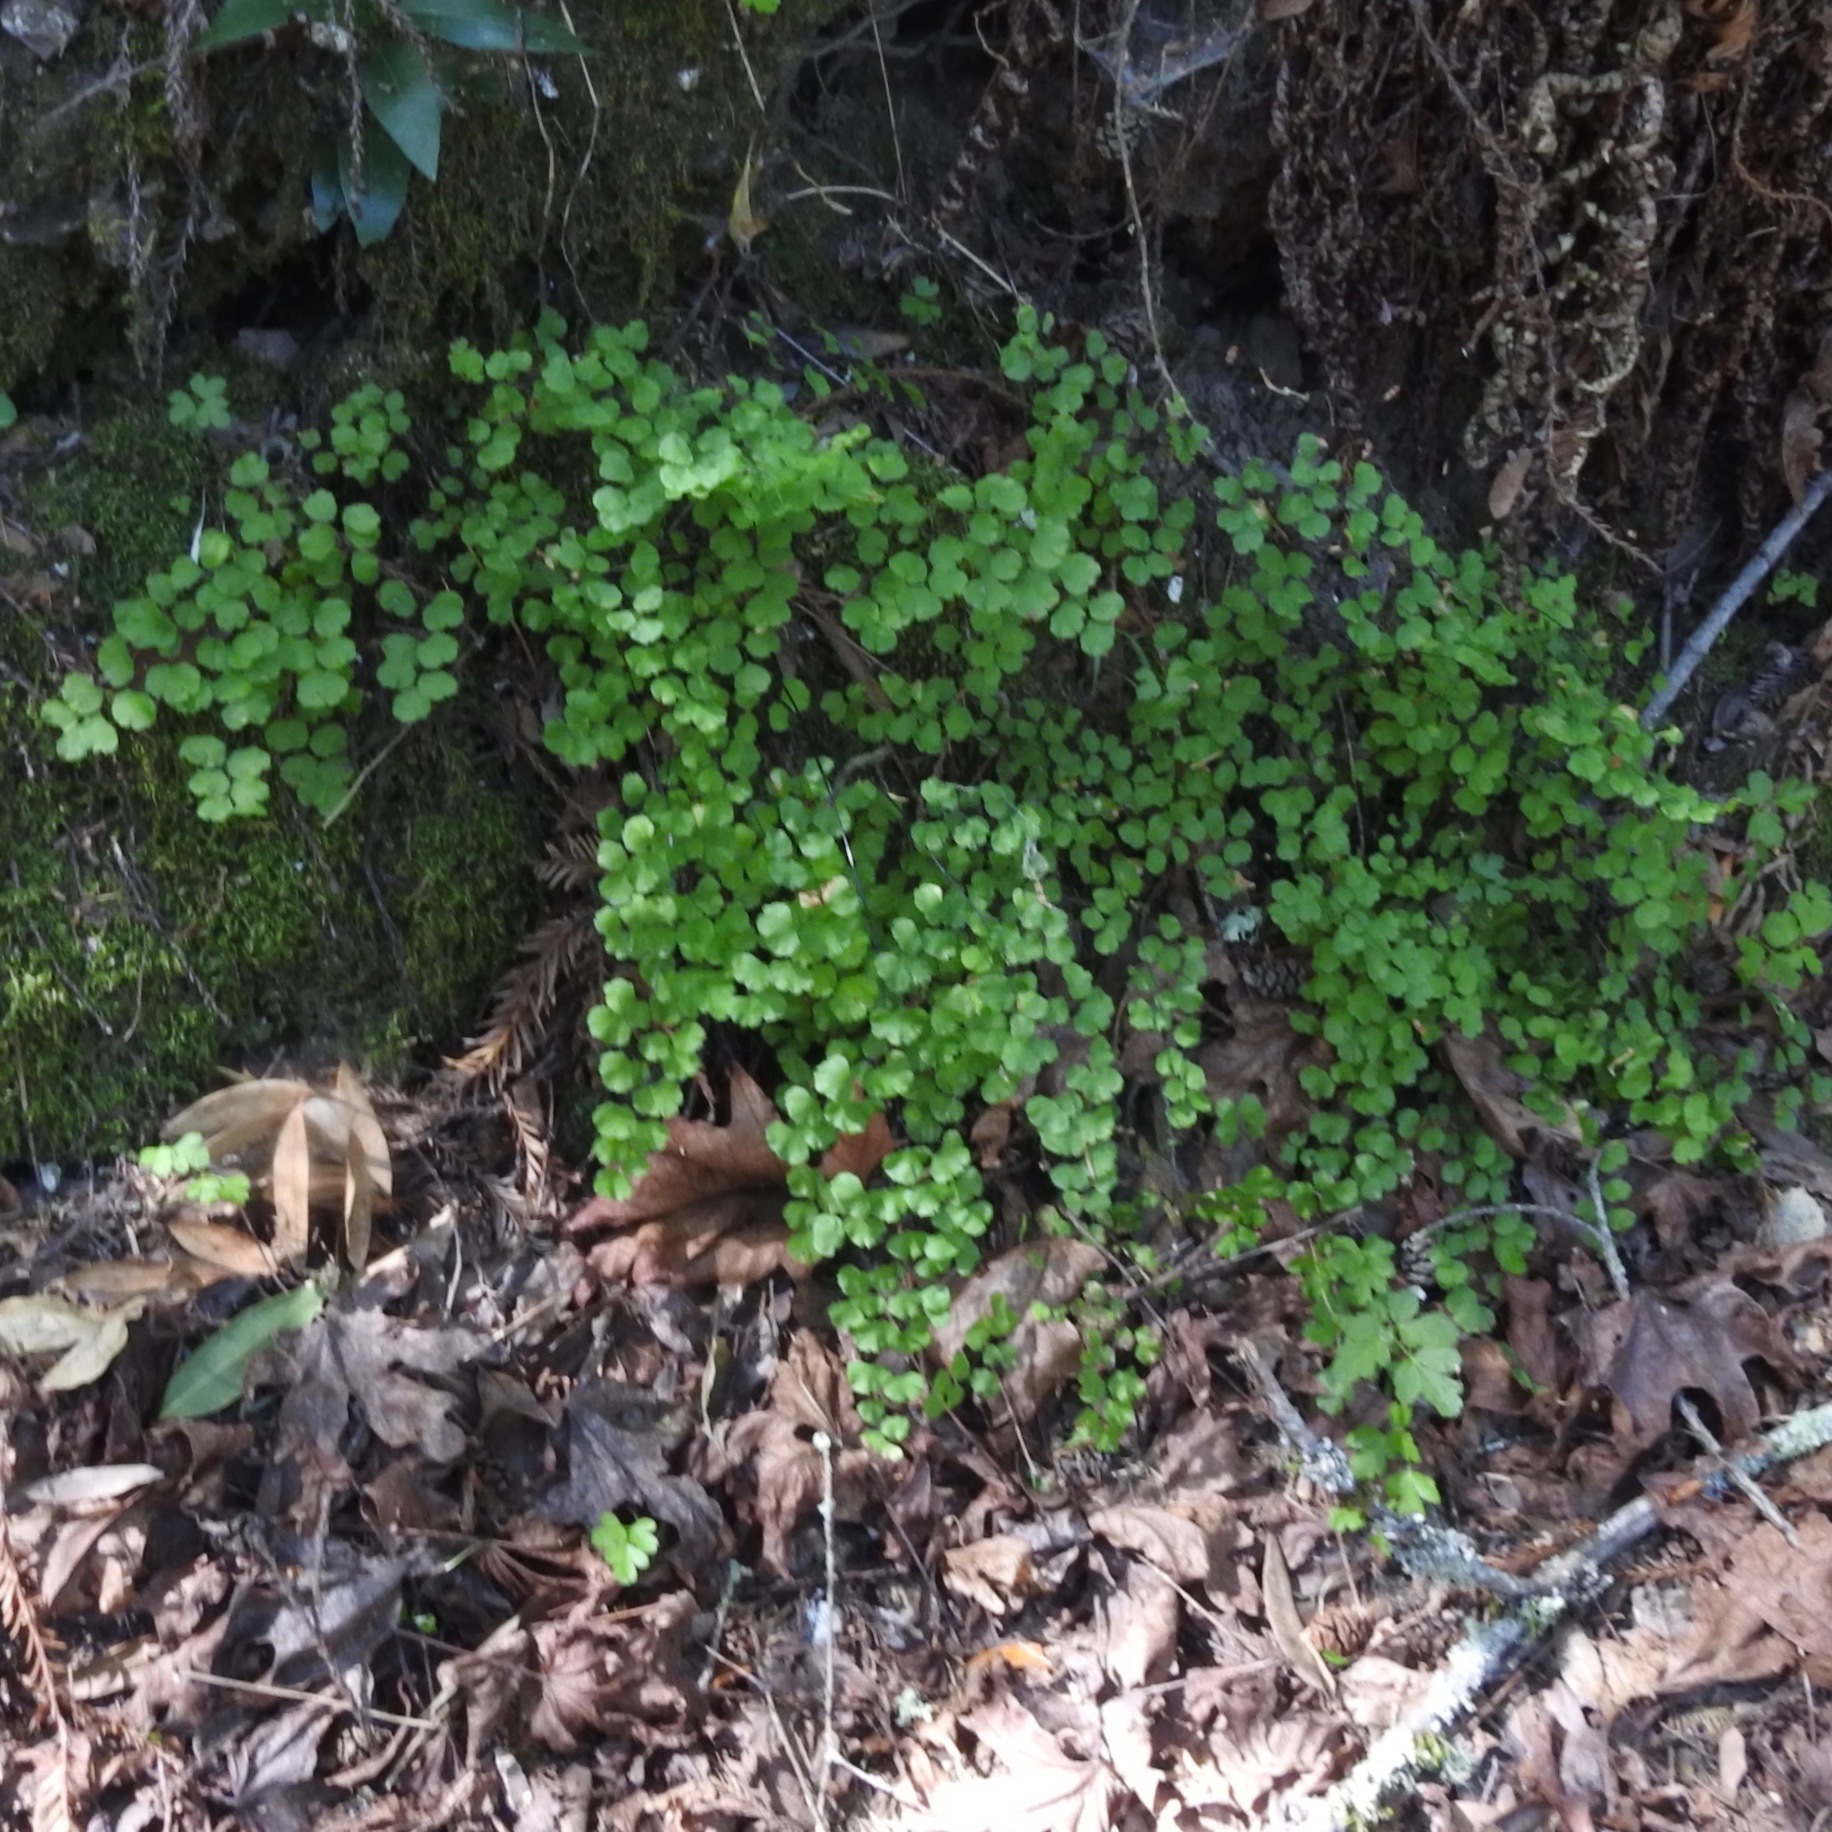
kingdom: Plantae
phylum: Tracheophyta
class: Polypodiopsida
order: Polypodiales
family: Pteridaceae
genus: Adiantum
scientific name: Adiantum jordanii
